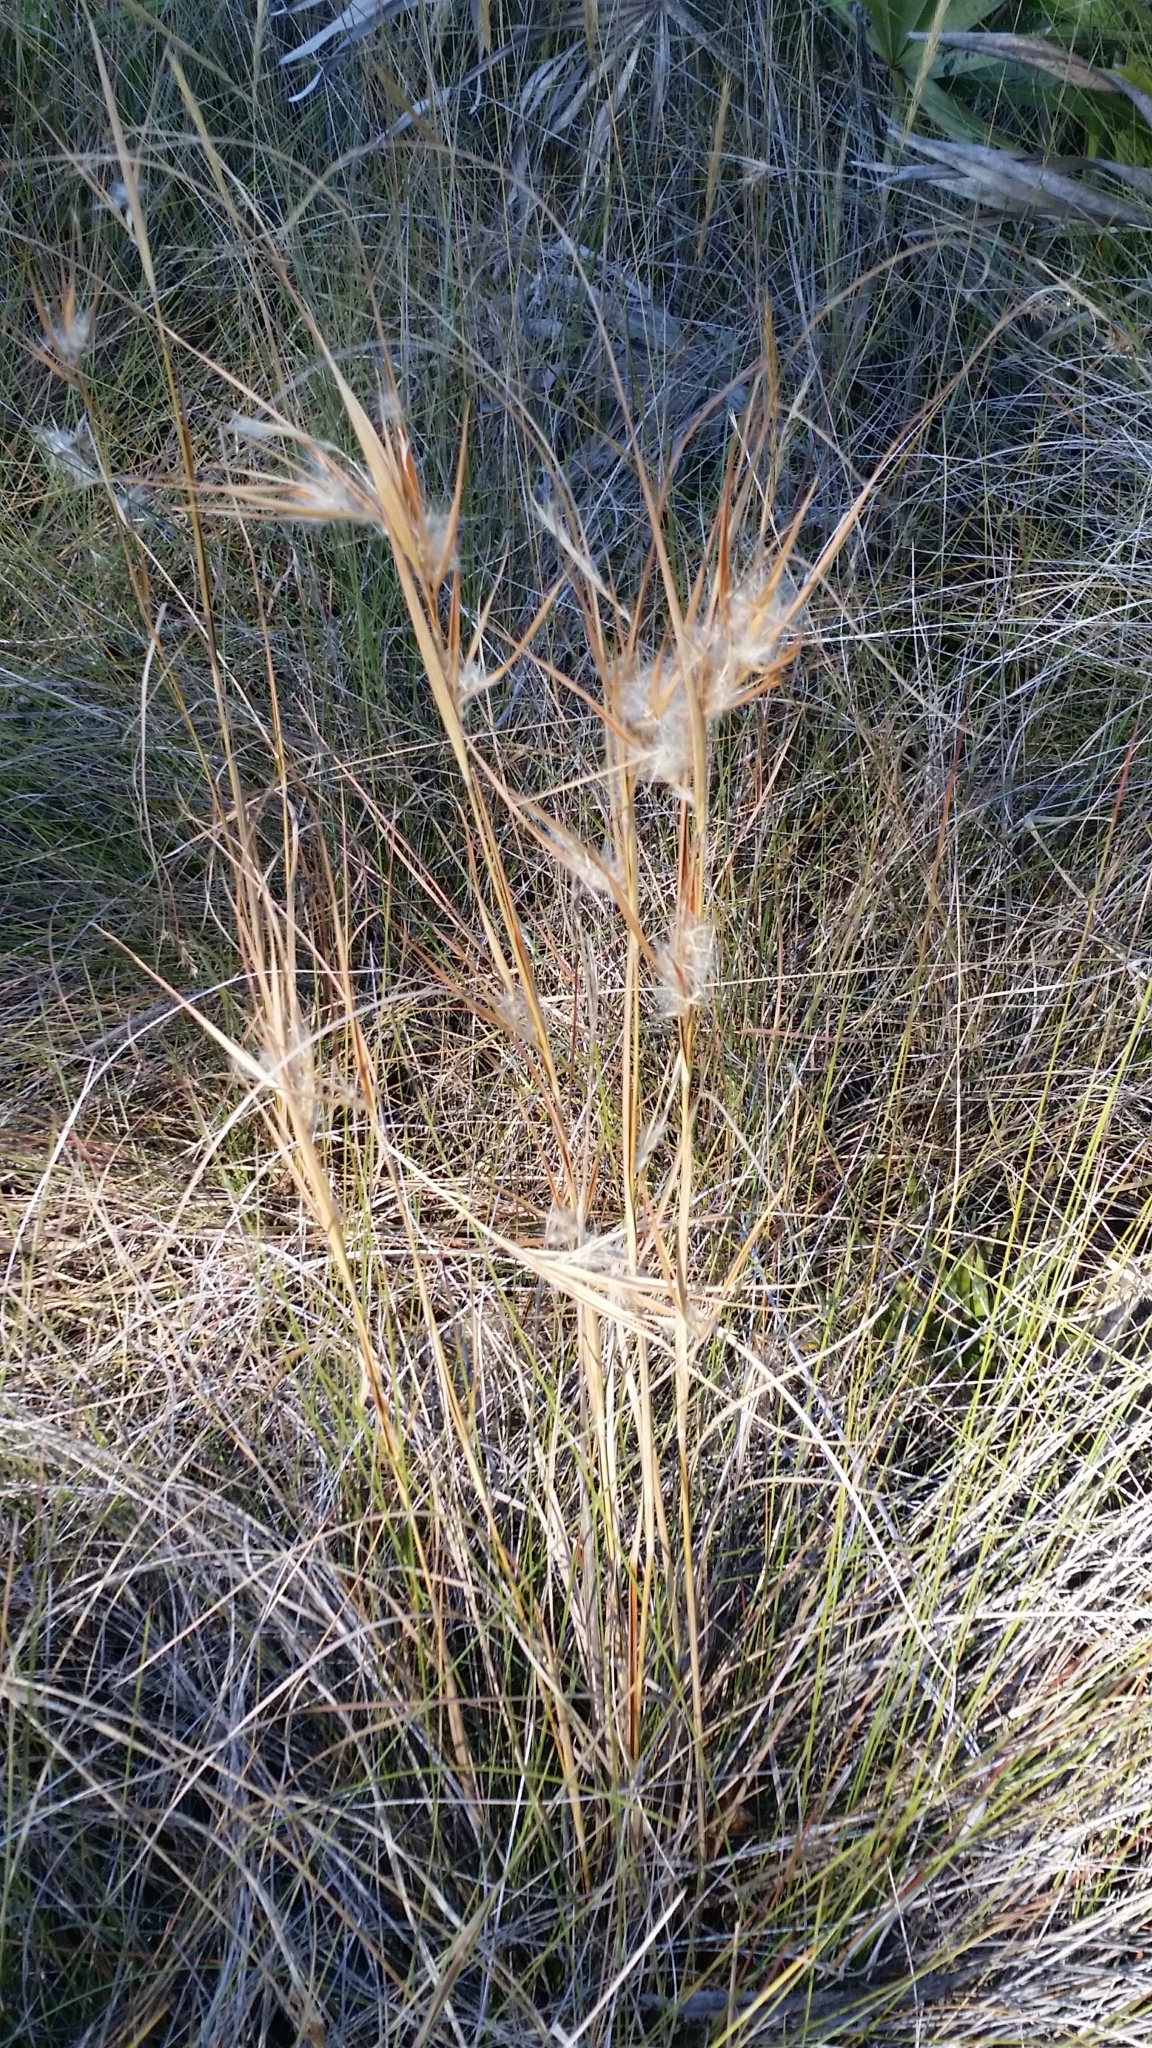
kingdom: Plantae
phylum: Tracheophyta
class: Liliopsida
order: Poales
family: Poaceae
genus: Andropogon
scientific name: Andropogon gyrans
